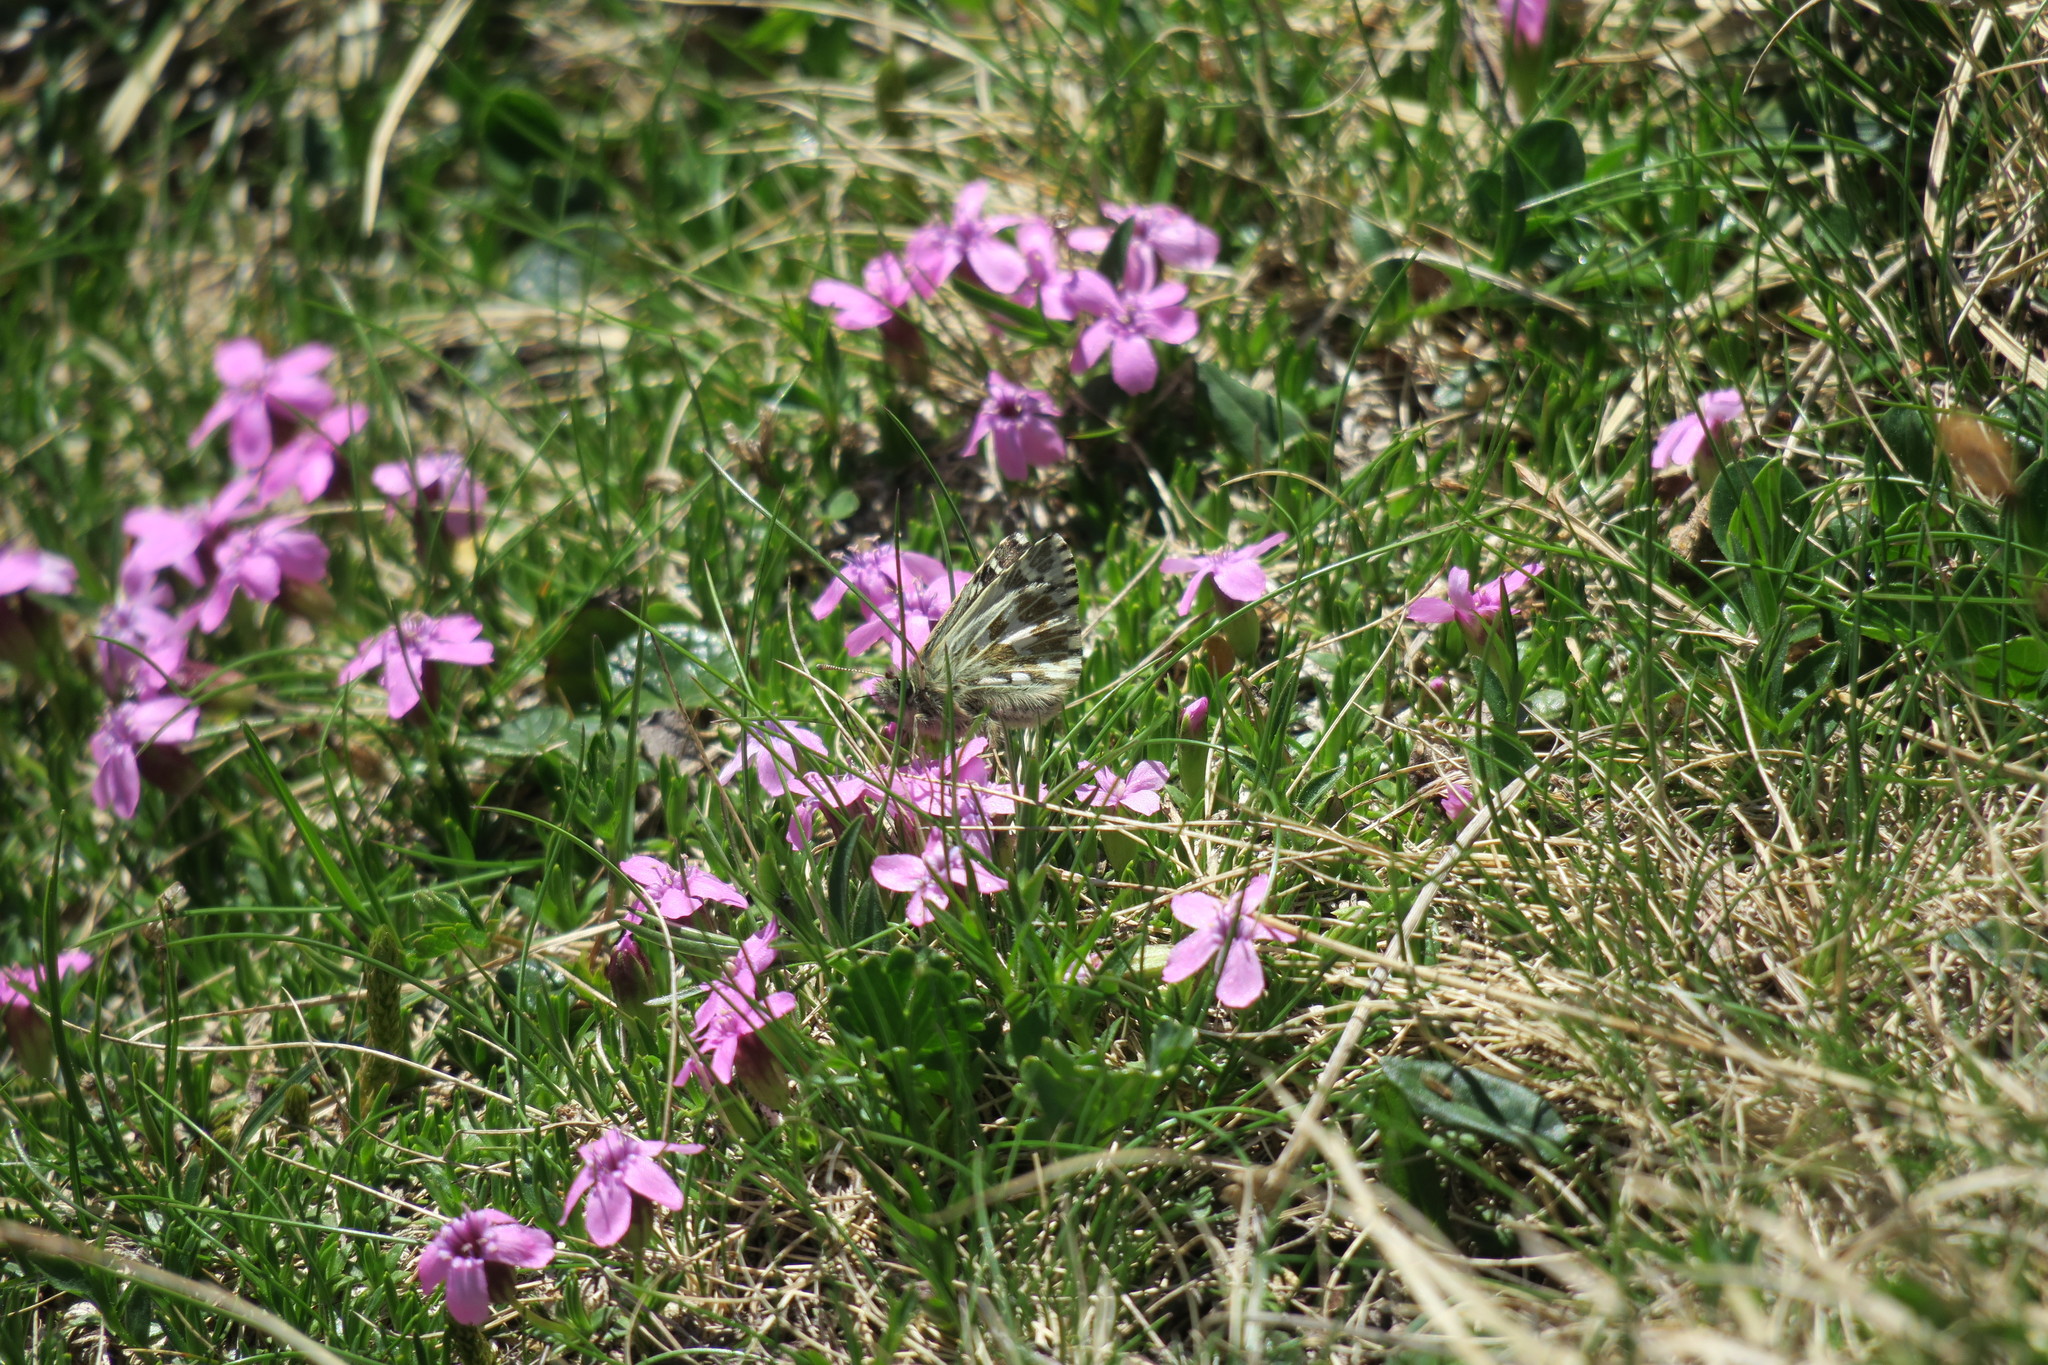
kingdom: Animalia
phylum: Arthropoda
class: Insecta
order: Lepidoptera
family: Hesperiidae
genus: Pyrgus
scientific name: Pyrgus andromedae
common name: Alpine grizzled skipper
